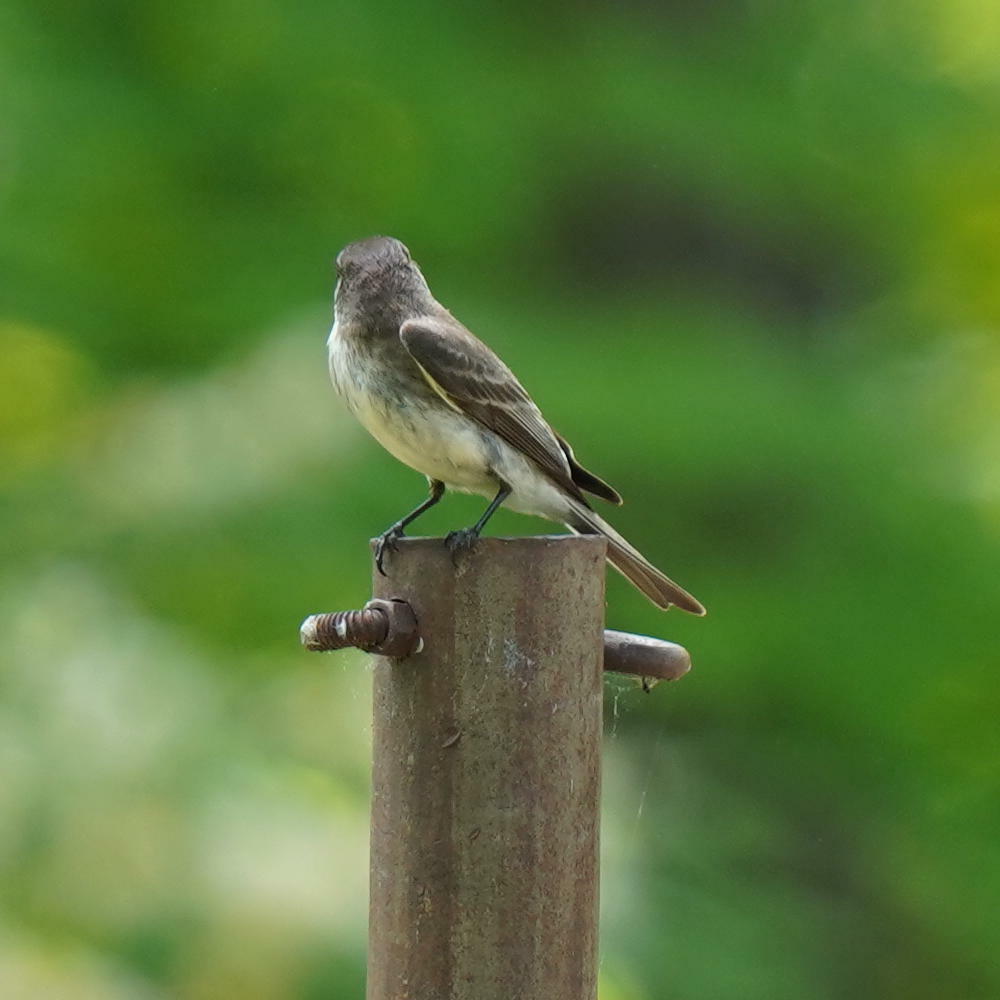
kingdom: Animalia
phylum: Chordata
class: Aves
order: Passeriformes
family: Tyrannidae
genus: Sayornis
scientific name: Sayornis phoebe
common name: Eastern phoebe
